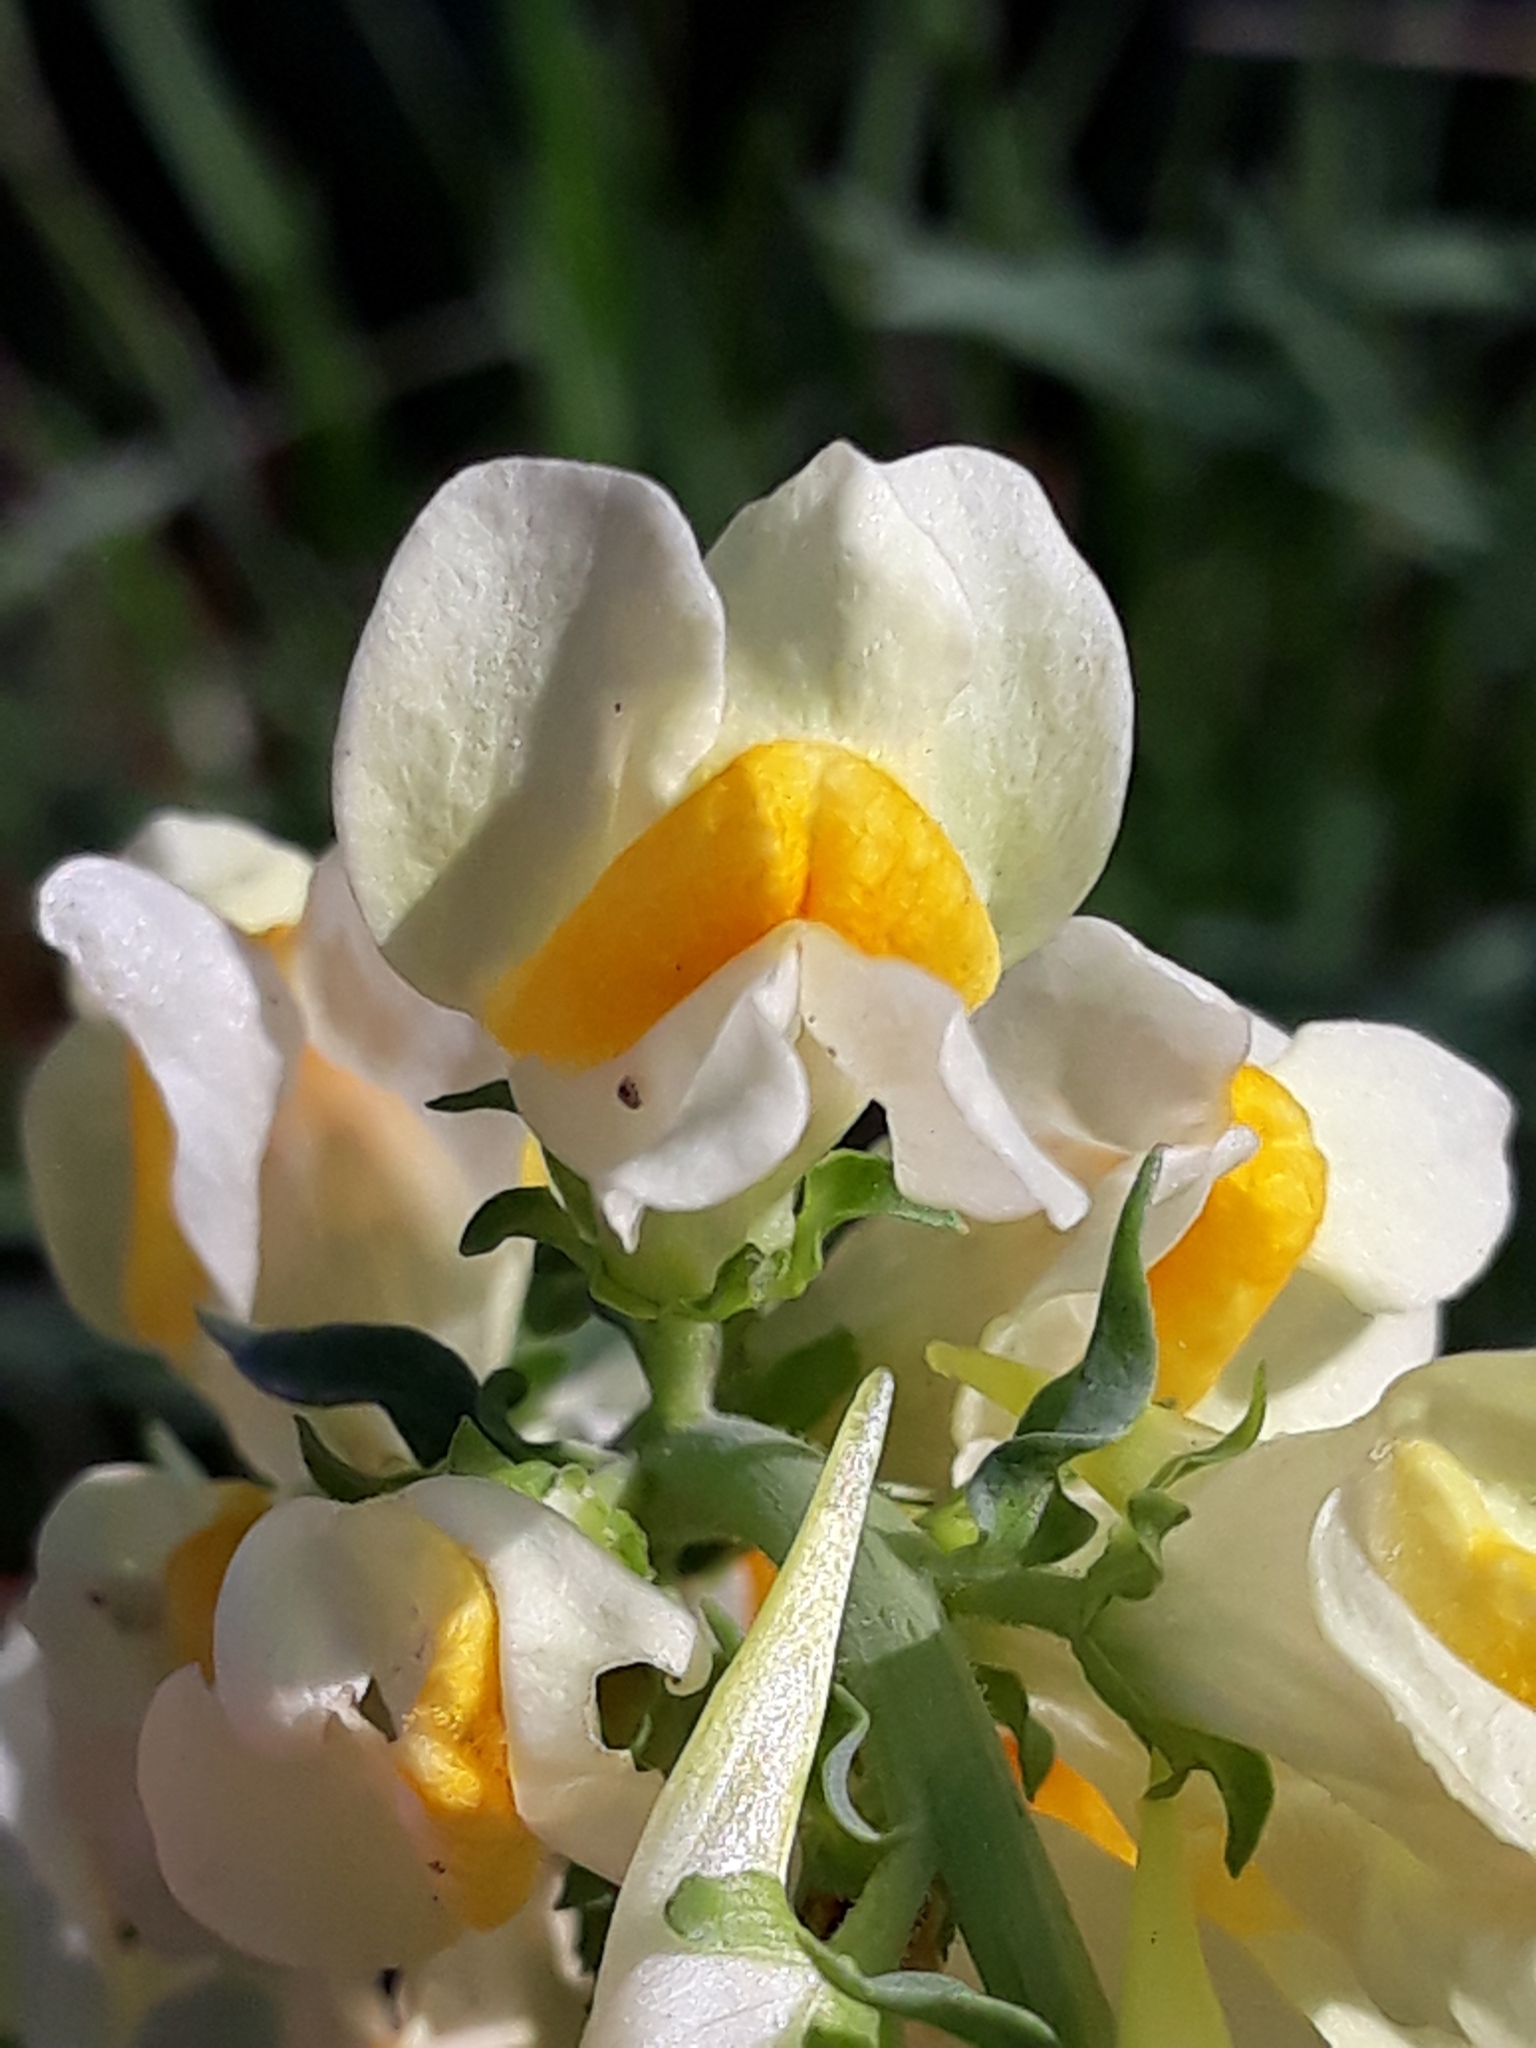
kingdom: Plantae
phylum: Tracheophyta
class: Magnoliopsida
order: Lamiales
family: Plantaginaceae
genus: Linaria
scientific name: Linaria vulgaris
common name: Butter and eggs
